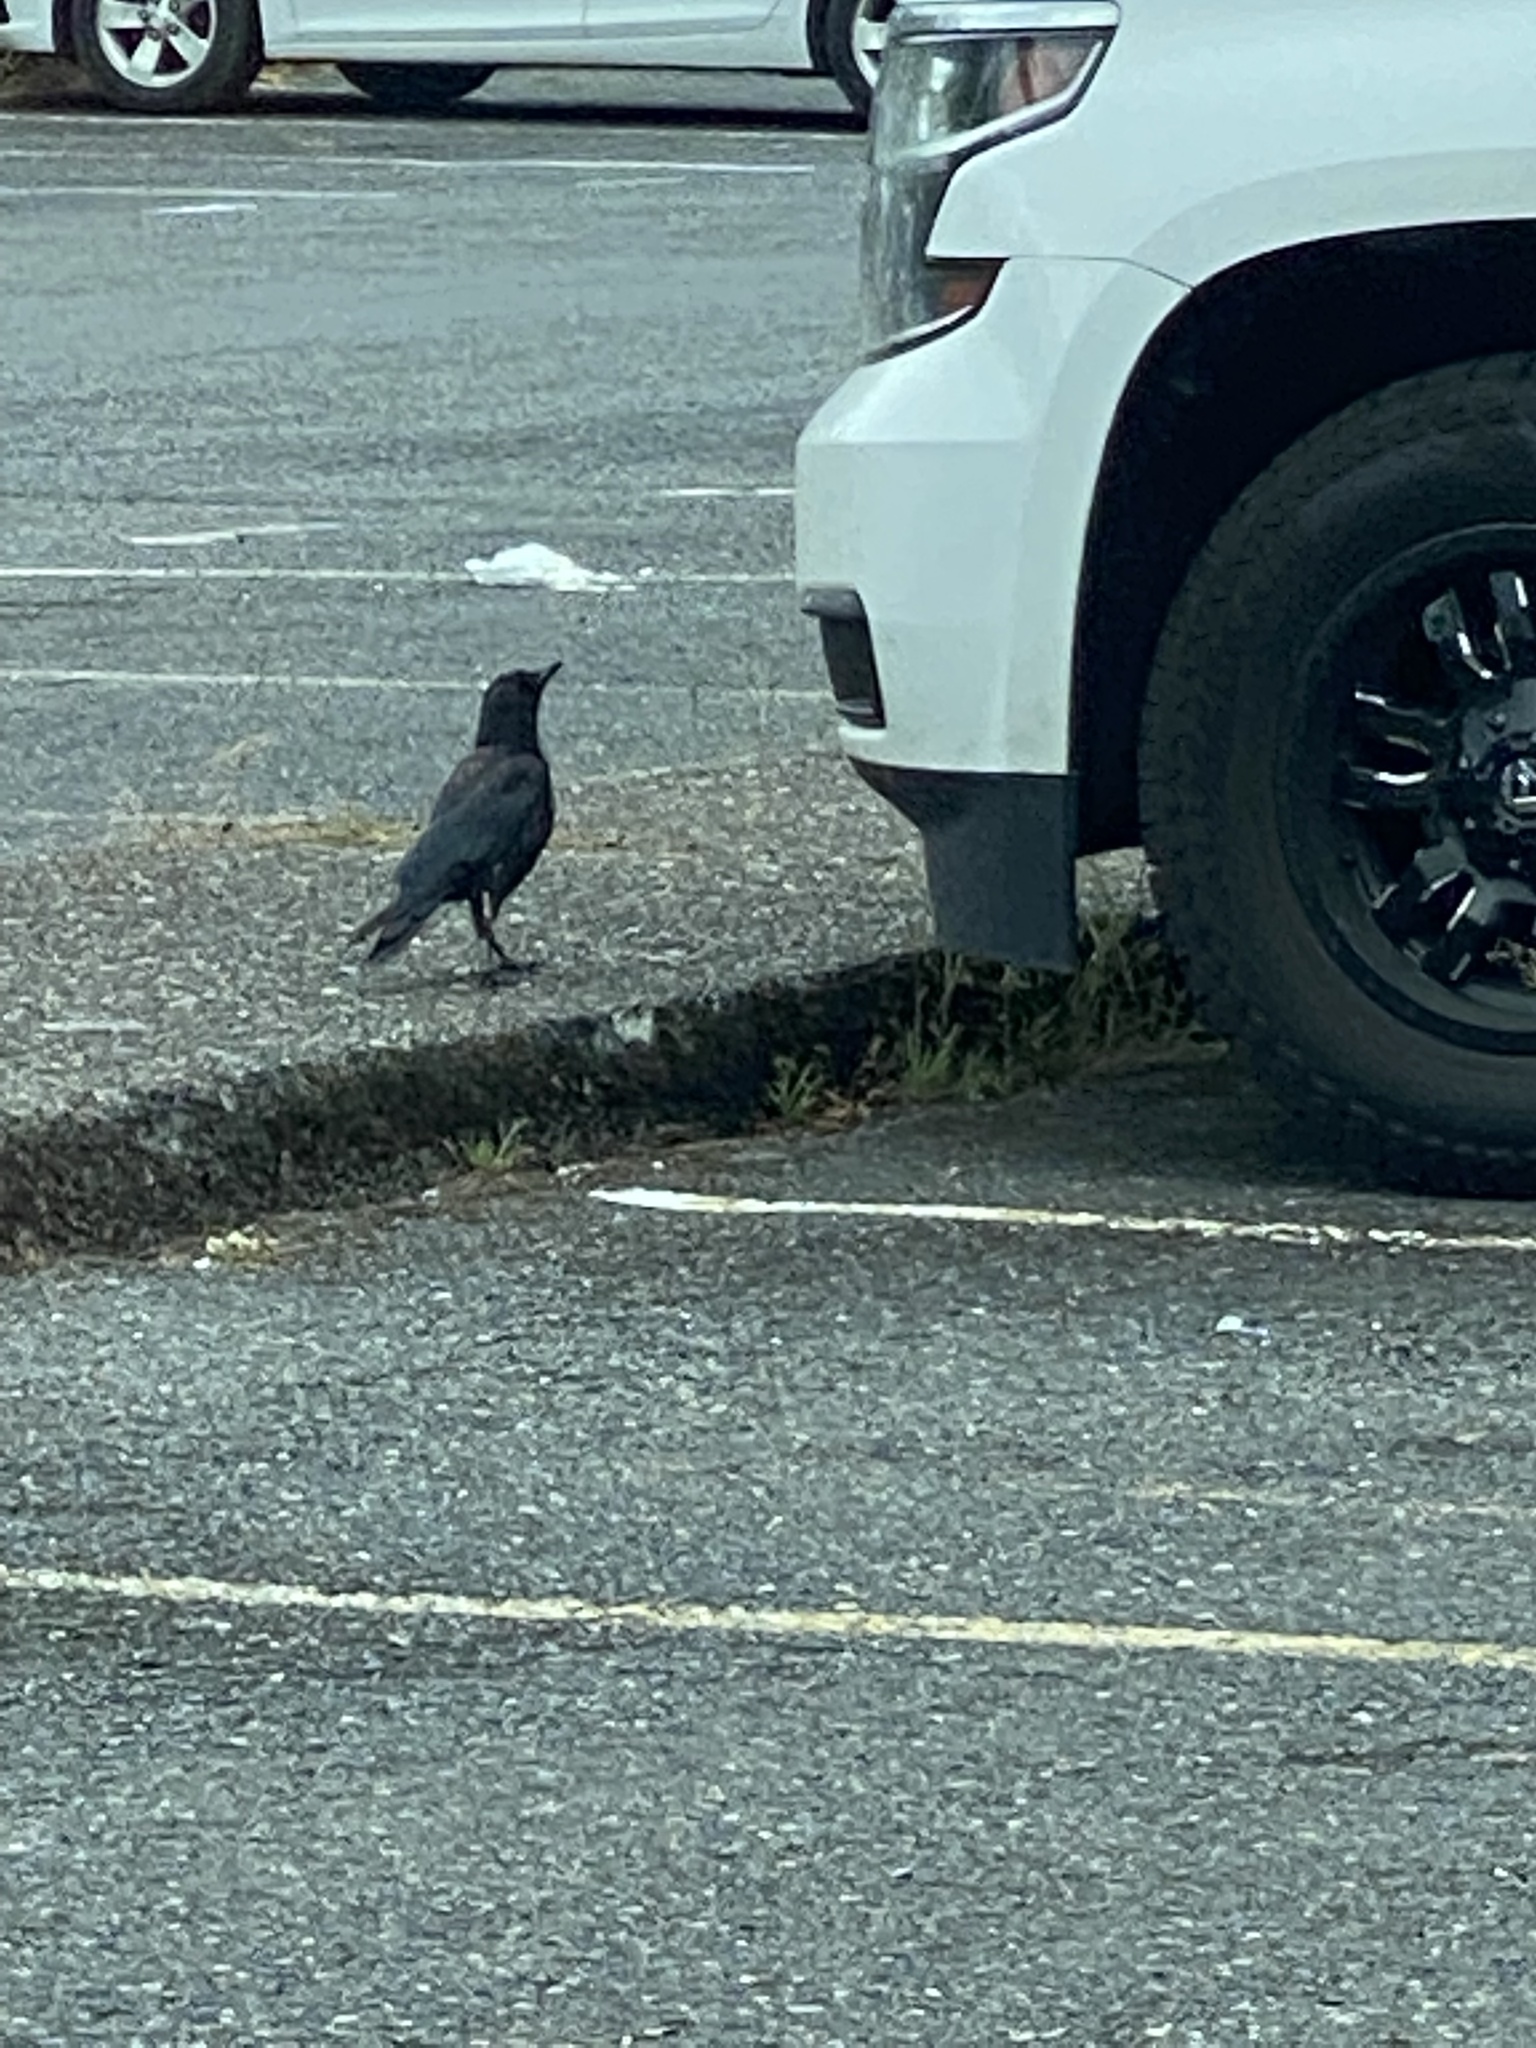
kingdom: Animalia
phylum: Chordata
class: Aves
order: Passeriformes
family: Corvidae
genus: Corvus
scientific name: Corvus brachyrhynchos
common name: American crow
